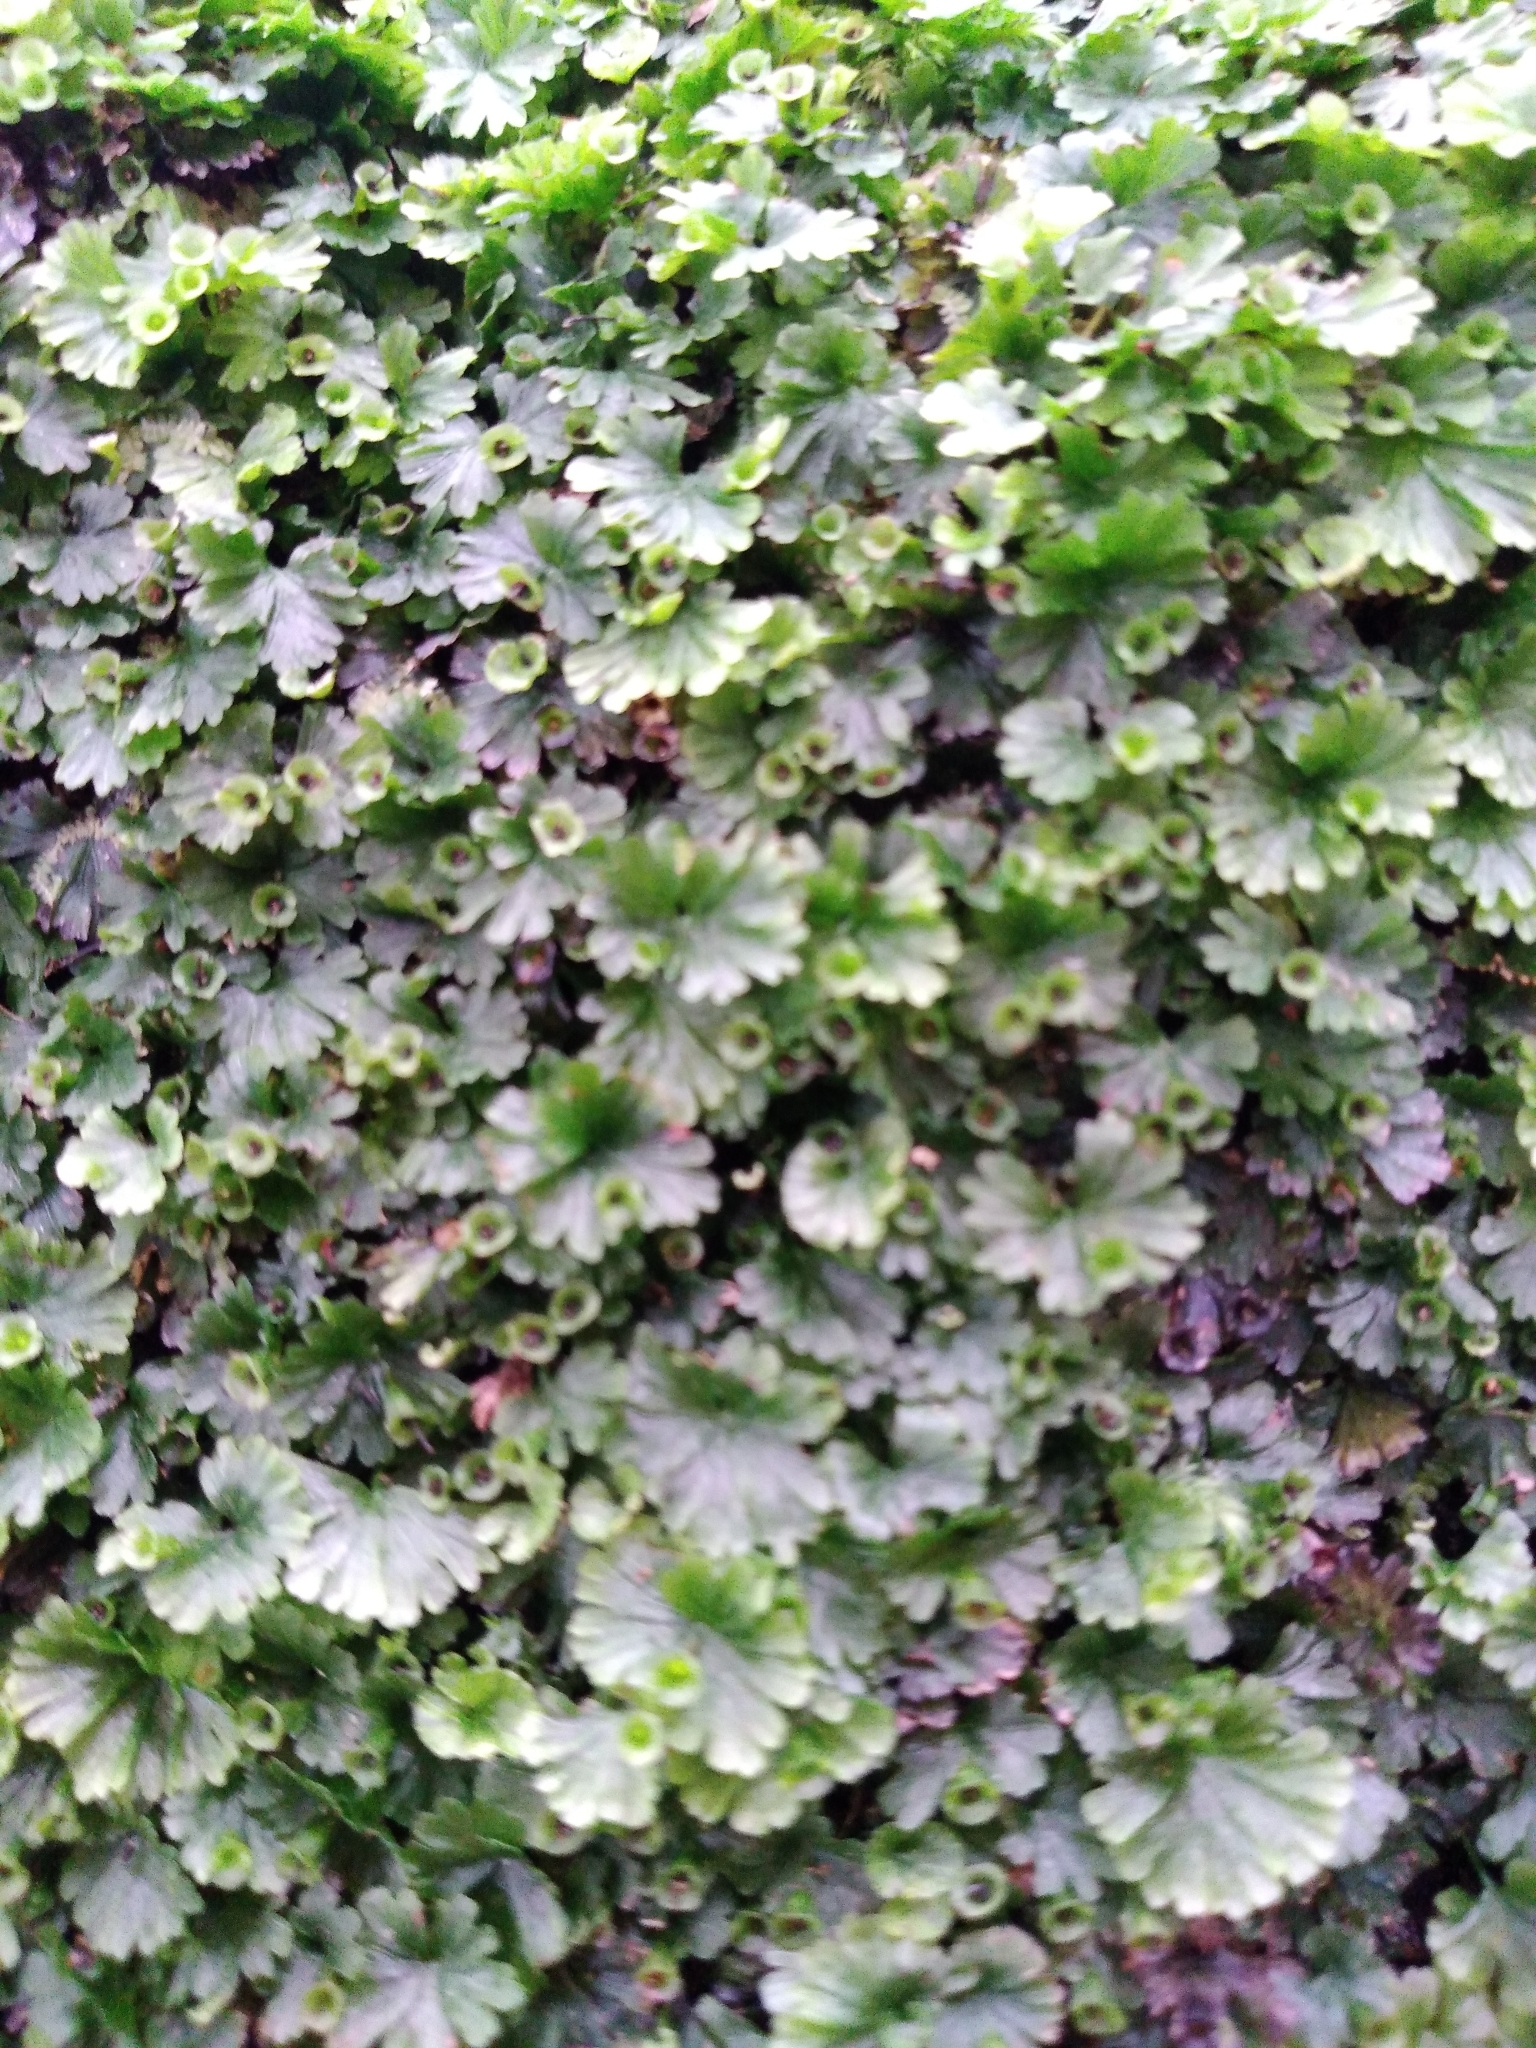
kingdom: Plantae
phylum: Tracheophyta
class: Polypodiopsida
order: Hymenophyllales
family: Hymenophyllaceae
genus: Crepidomanes
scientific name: Crepidomanes saxifragoides
